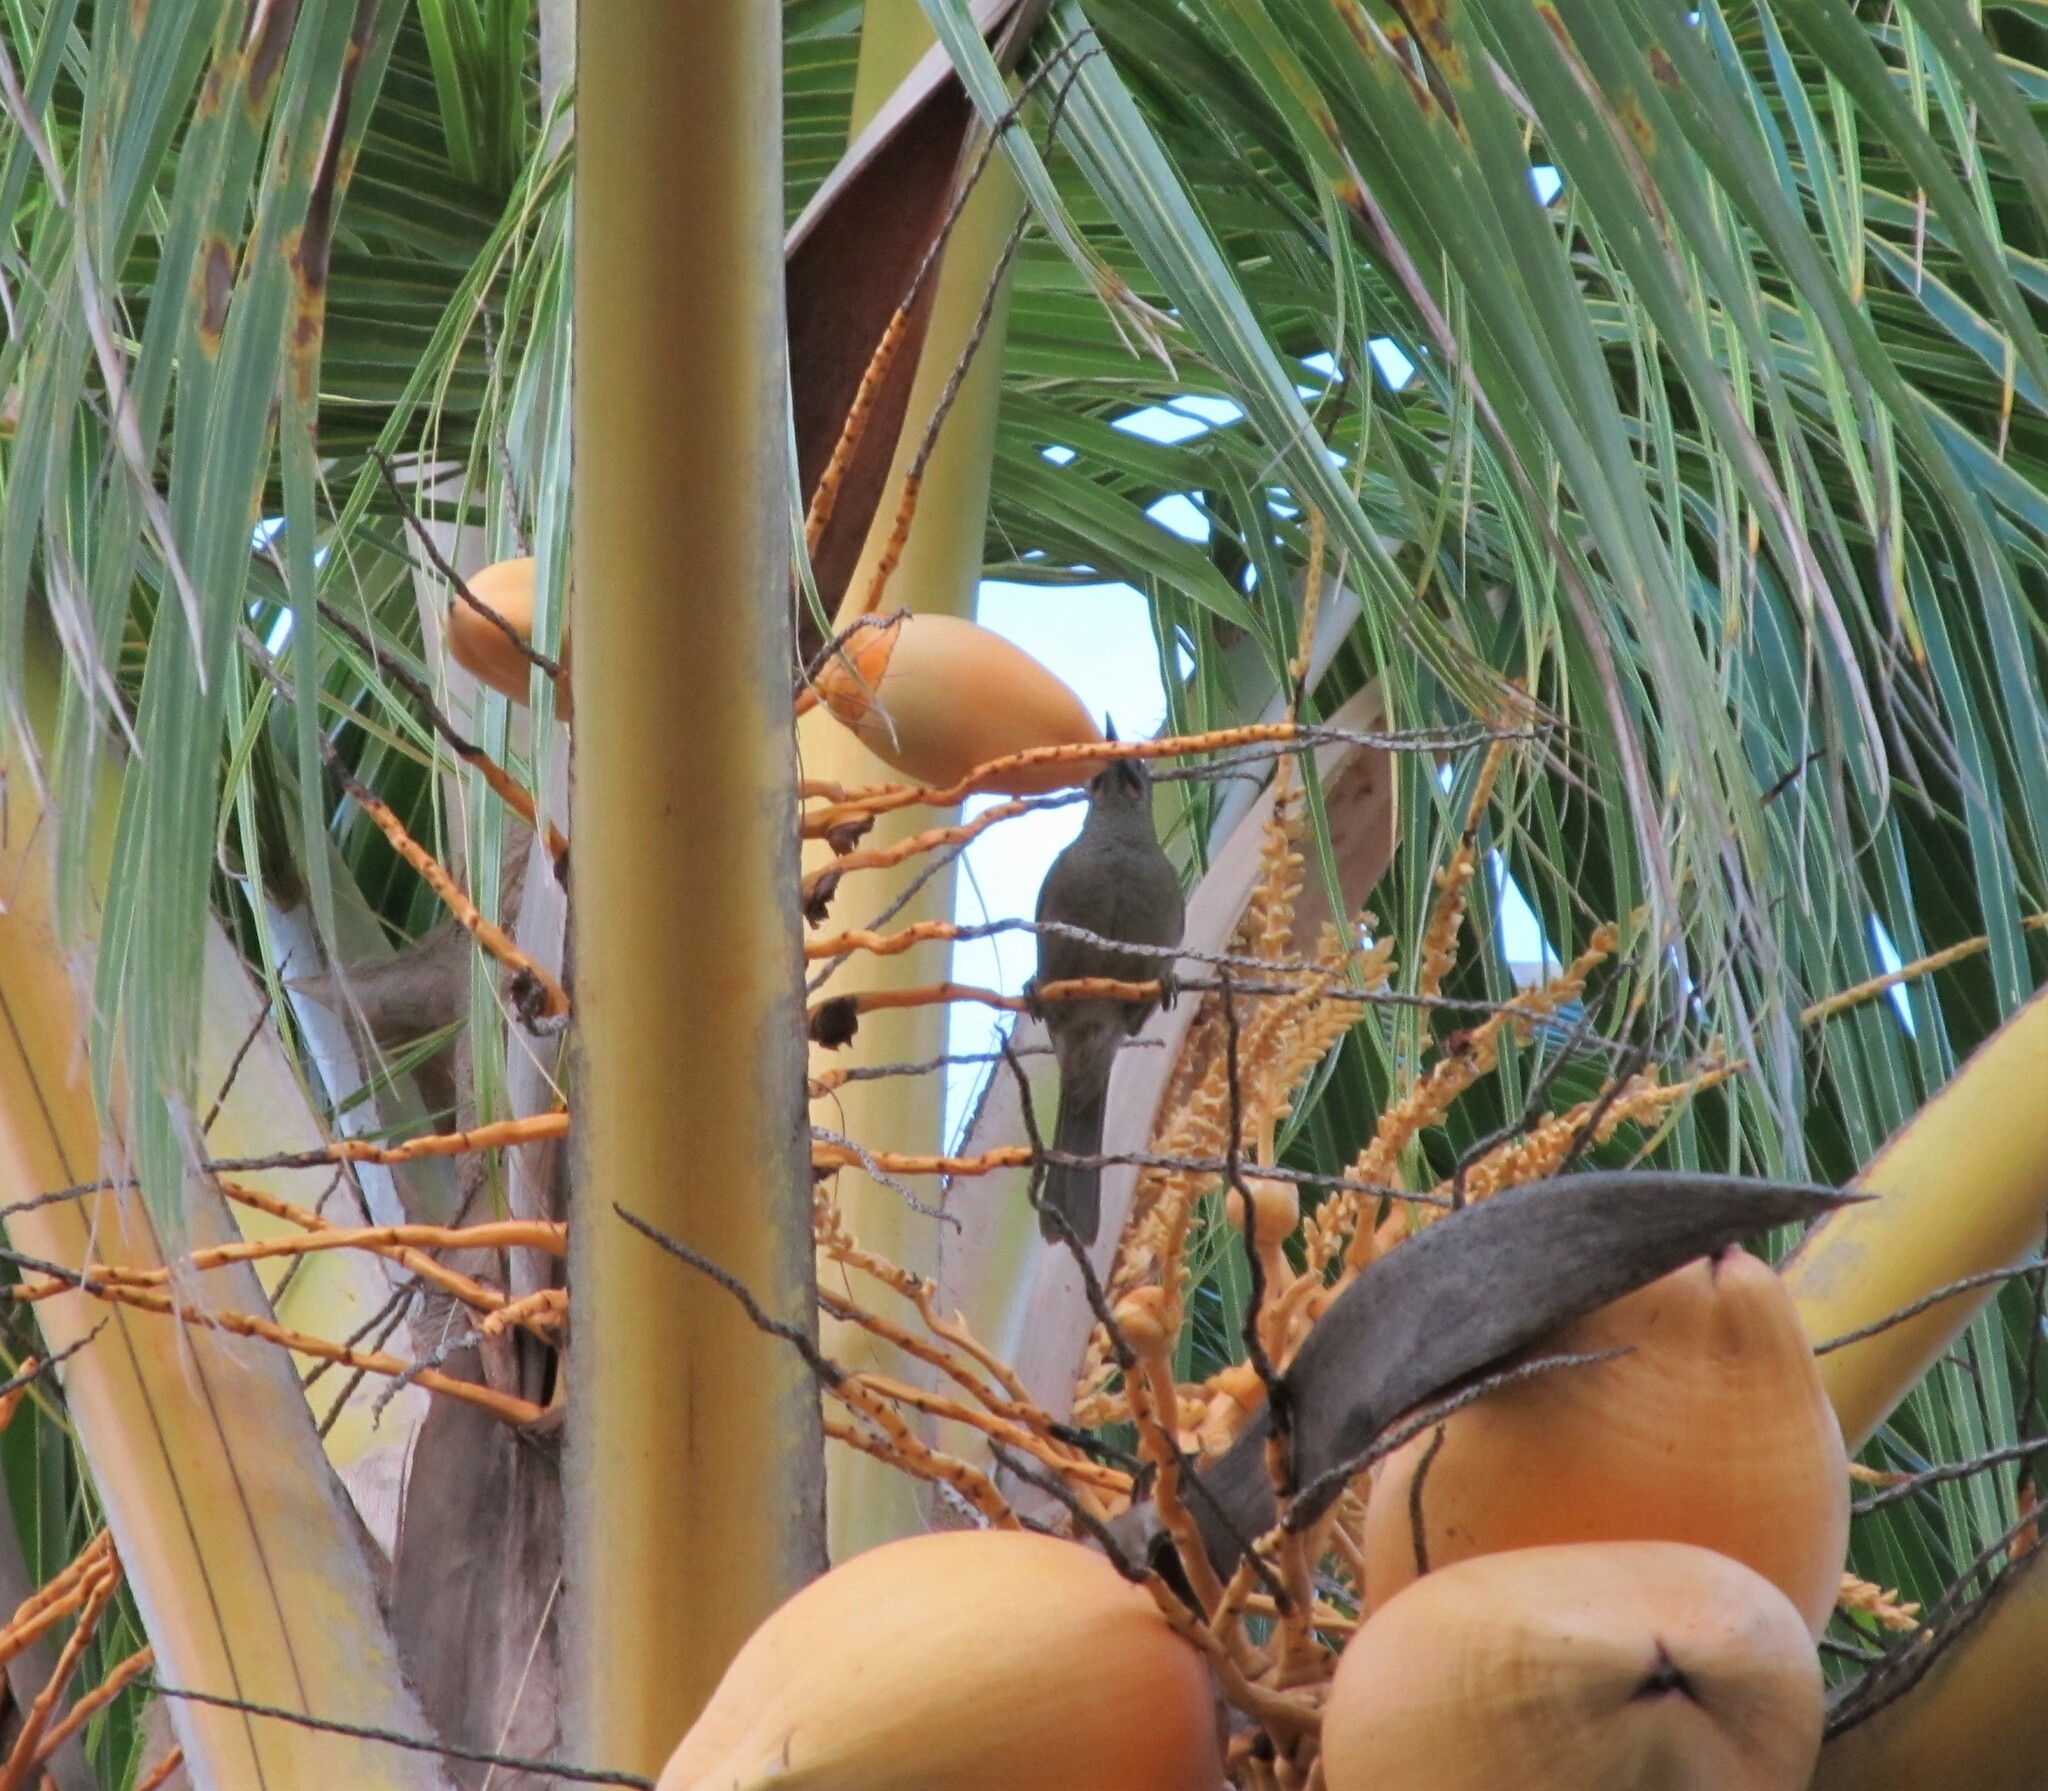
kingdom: Animalia
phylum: Chordata
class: Aves
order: Passeriformes
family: Meliphagidae
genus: Foulehaio
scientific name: Foulehaio procerior
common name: Kikau
